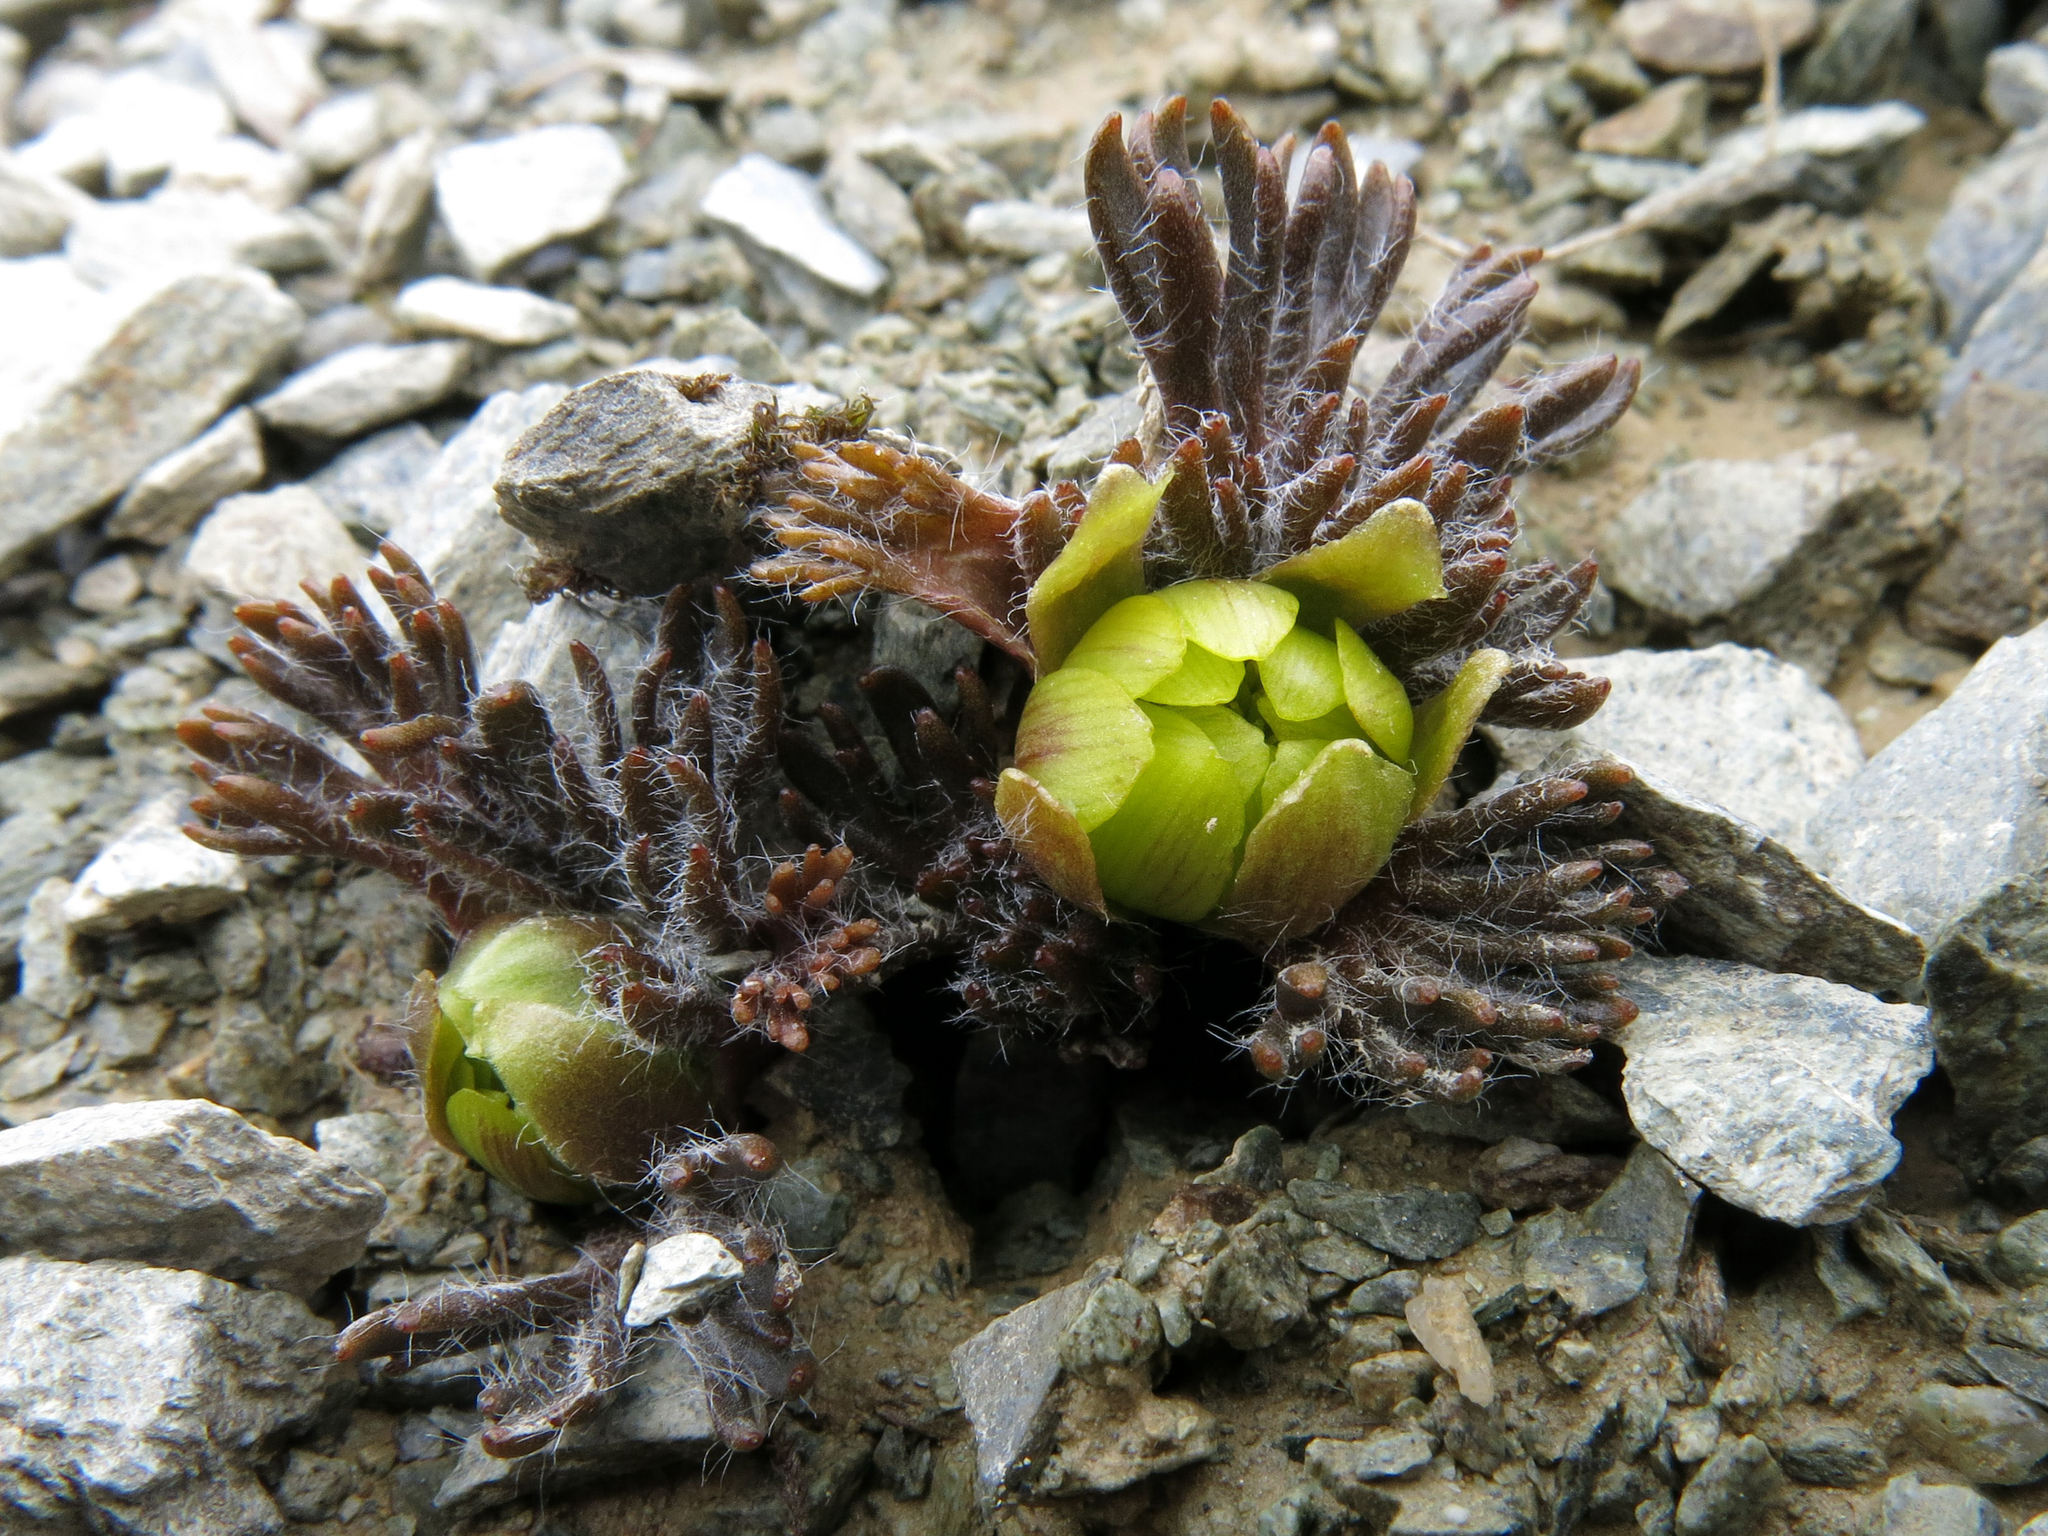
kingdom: Plantae
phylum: Tracheophyta
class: Magnoliopsida
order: Ranunculales
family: Ranunculaceae
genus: Ranunculus
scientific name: Ranunculus scrithalis
